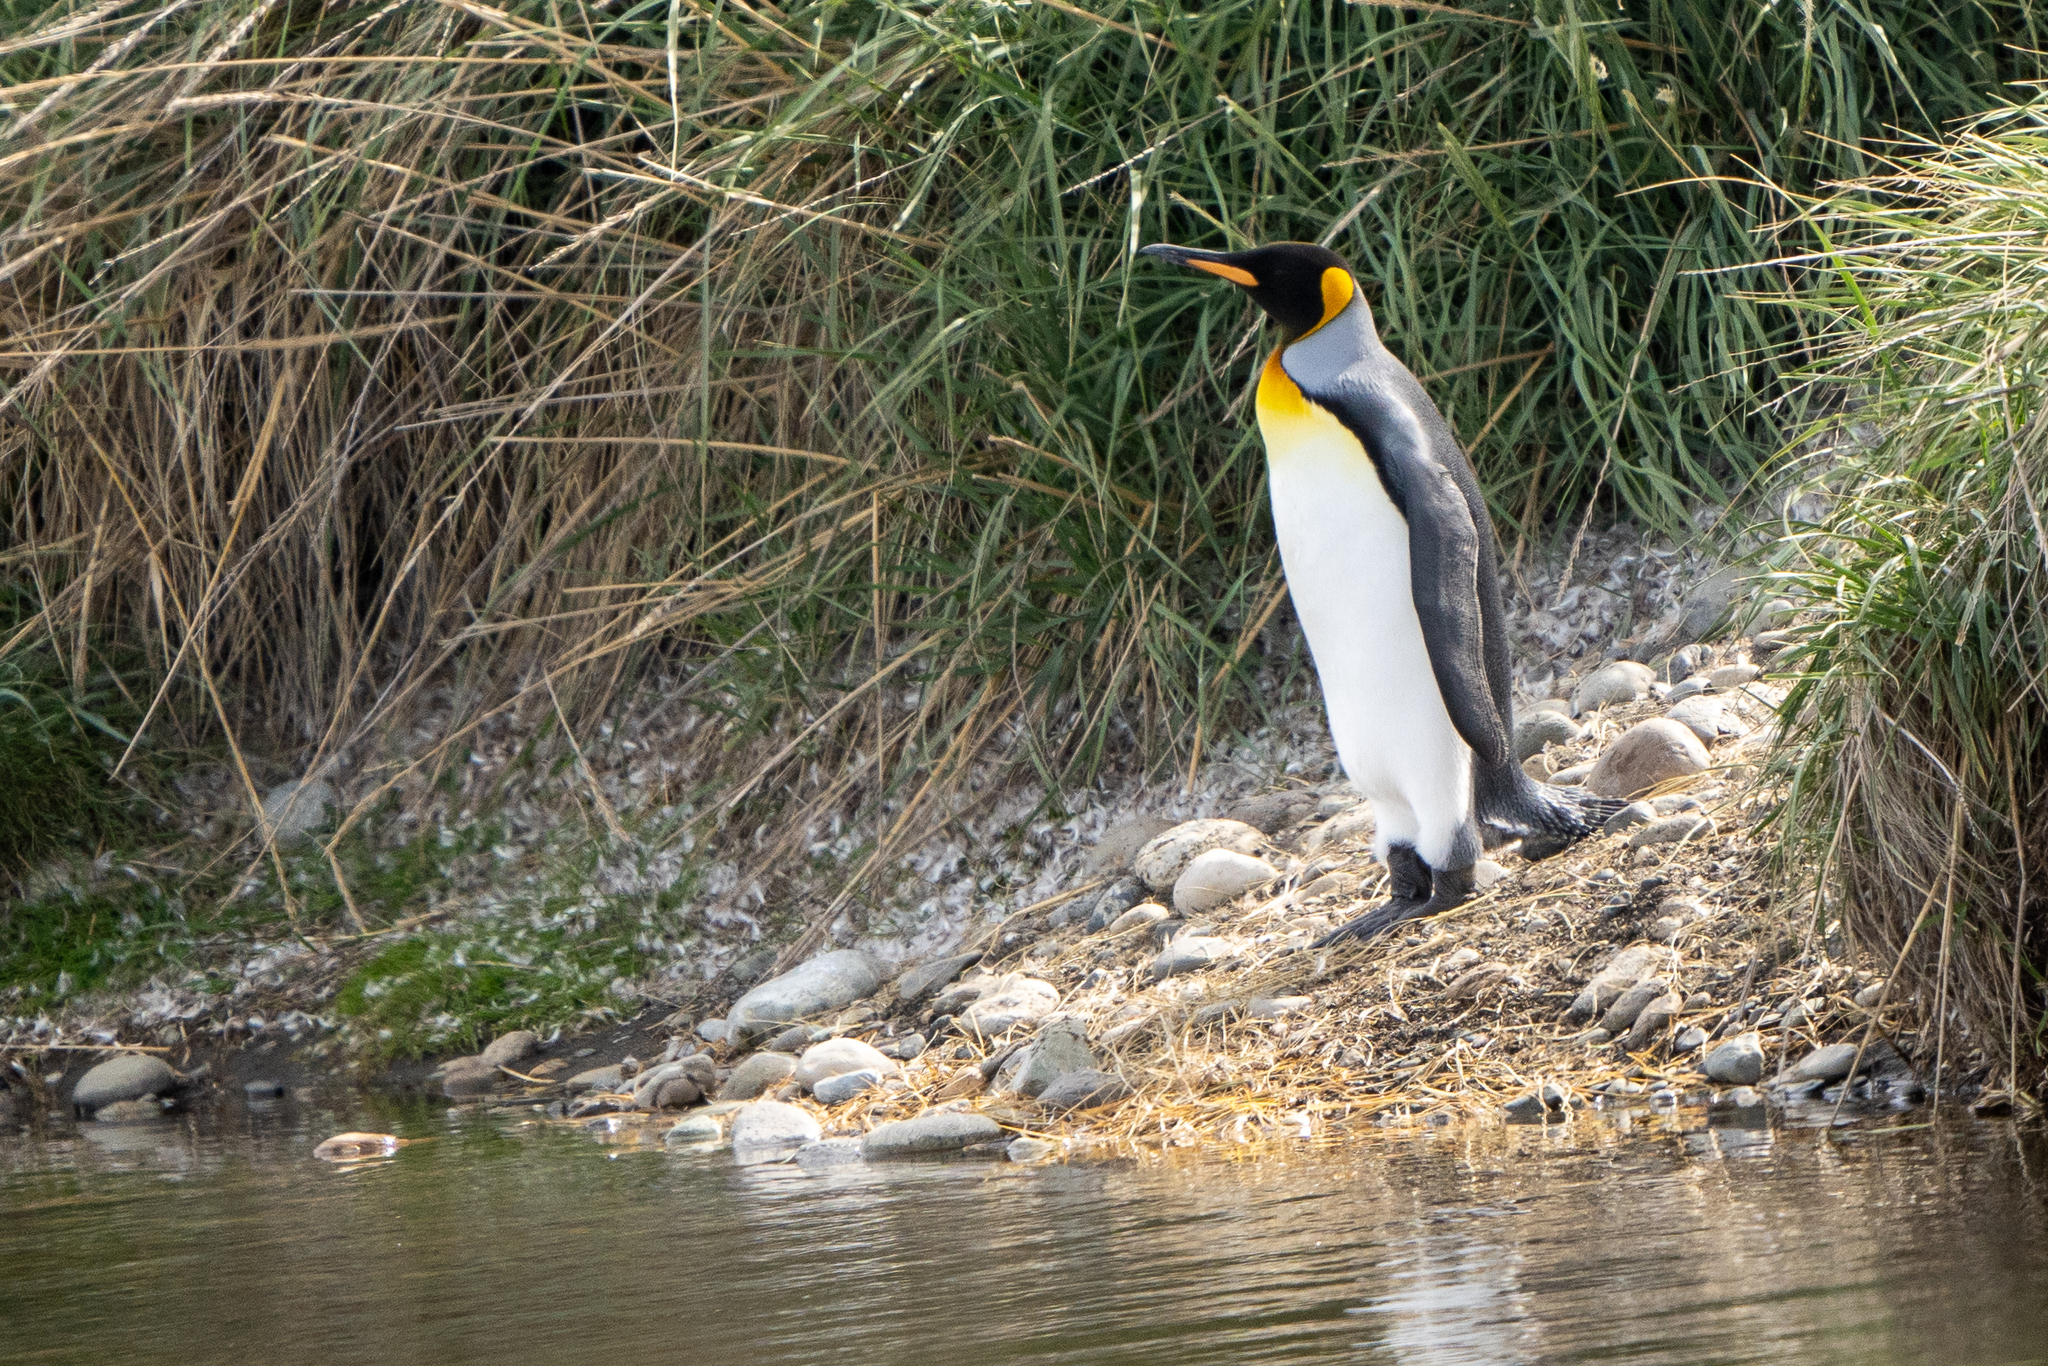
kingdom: Animalia
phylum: Chordata
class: Aves
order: Sphenisciformes
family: Spheniscidae
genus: Aptenodytes
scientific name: Aptenodytes patagonicus
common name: King penguin
